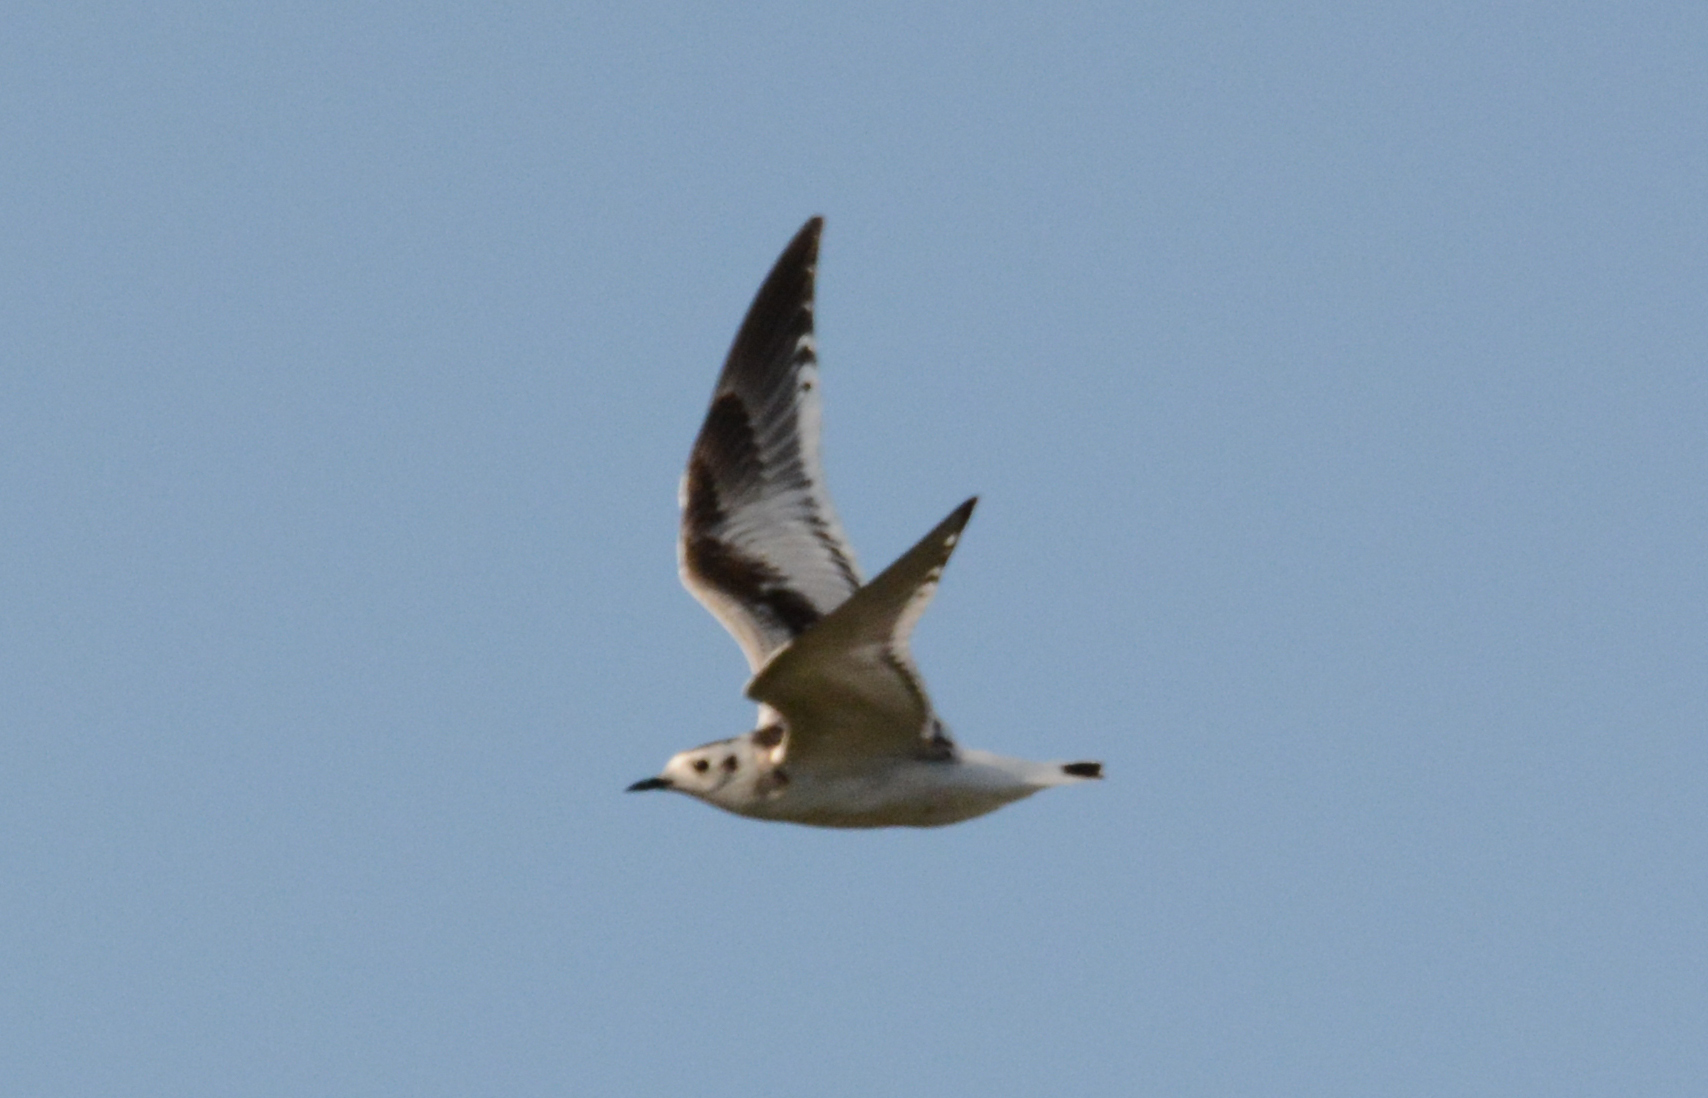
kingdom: Animalia
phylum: Chordata
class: Aves
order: Charadriiformes
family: Laridae
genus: Hydrocoloeus
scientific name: Hydrocoloeus minutus
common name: Little gull
